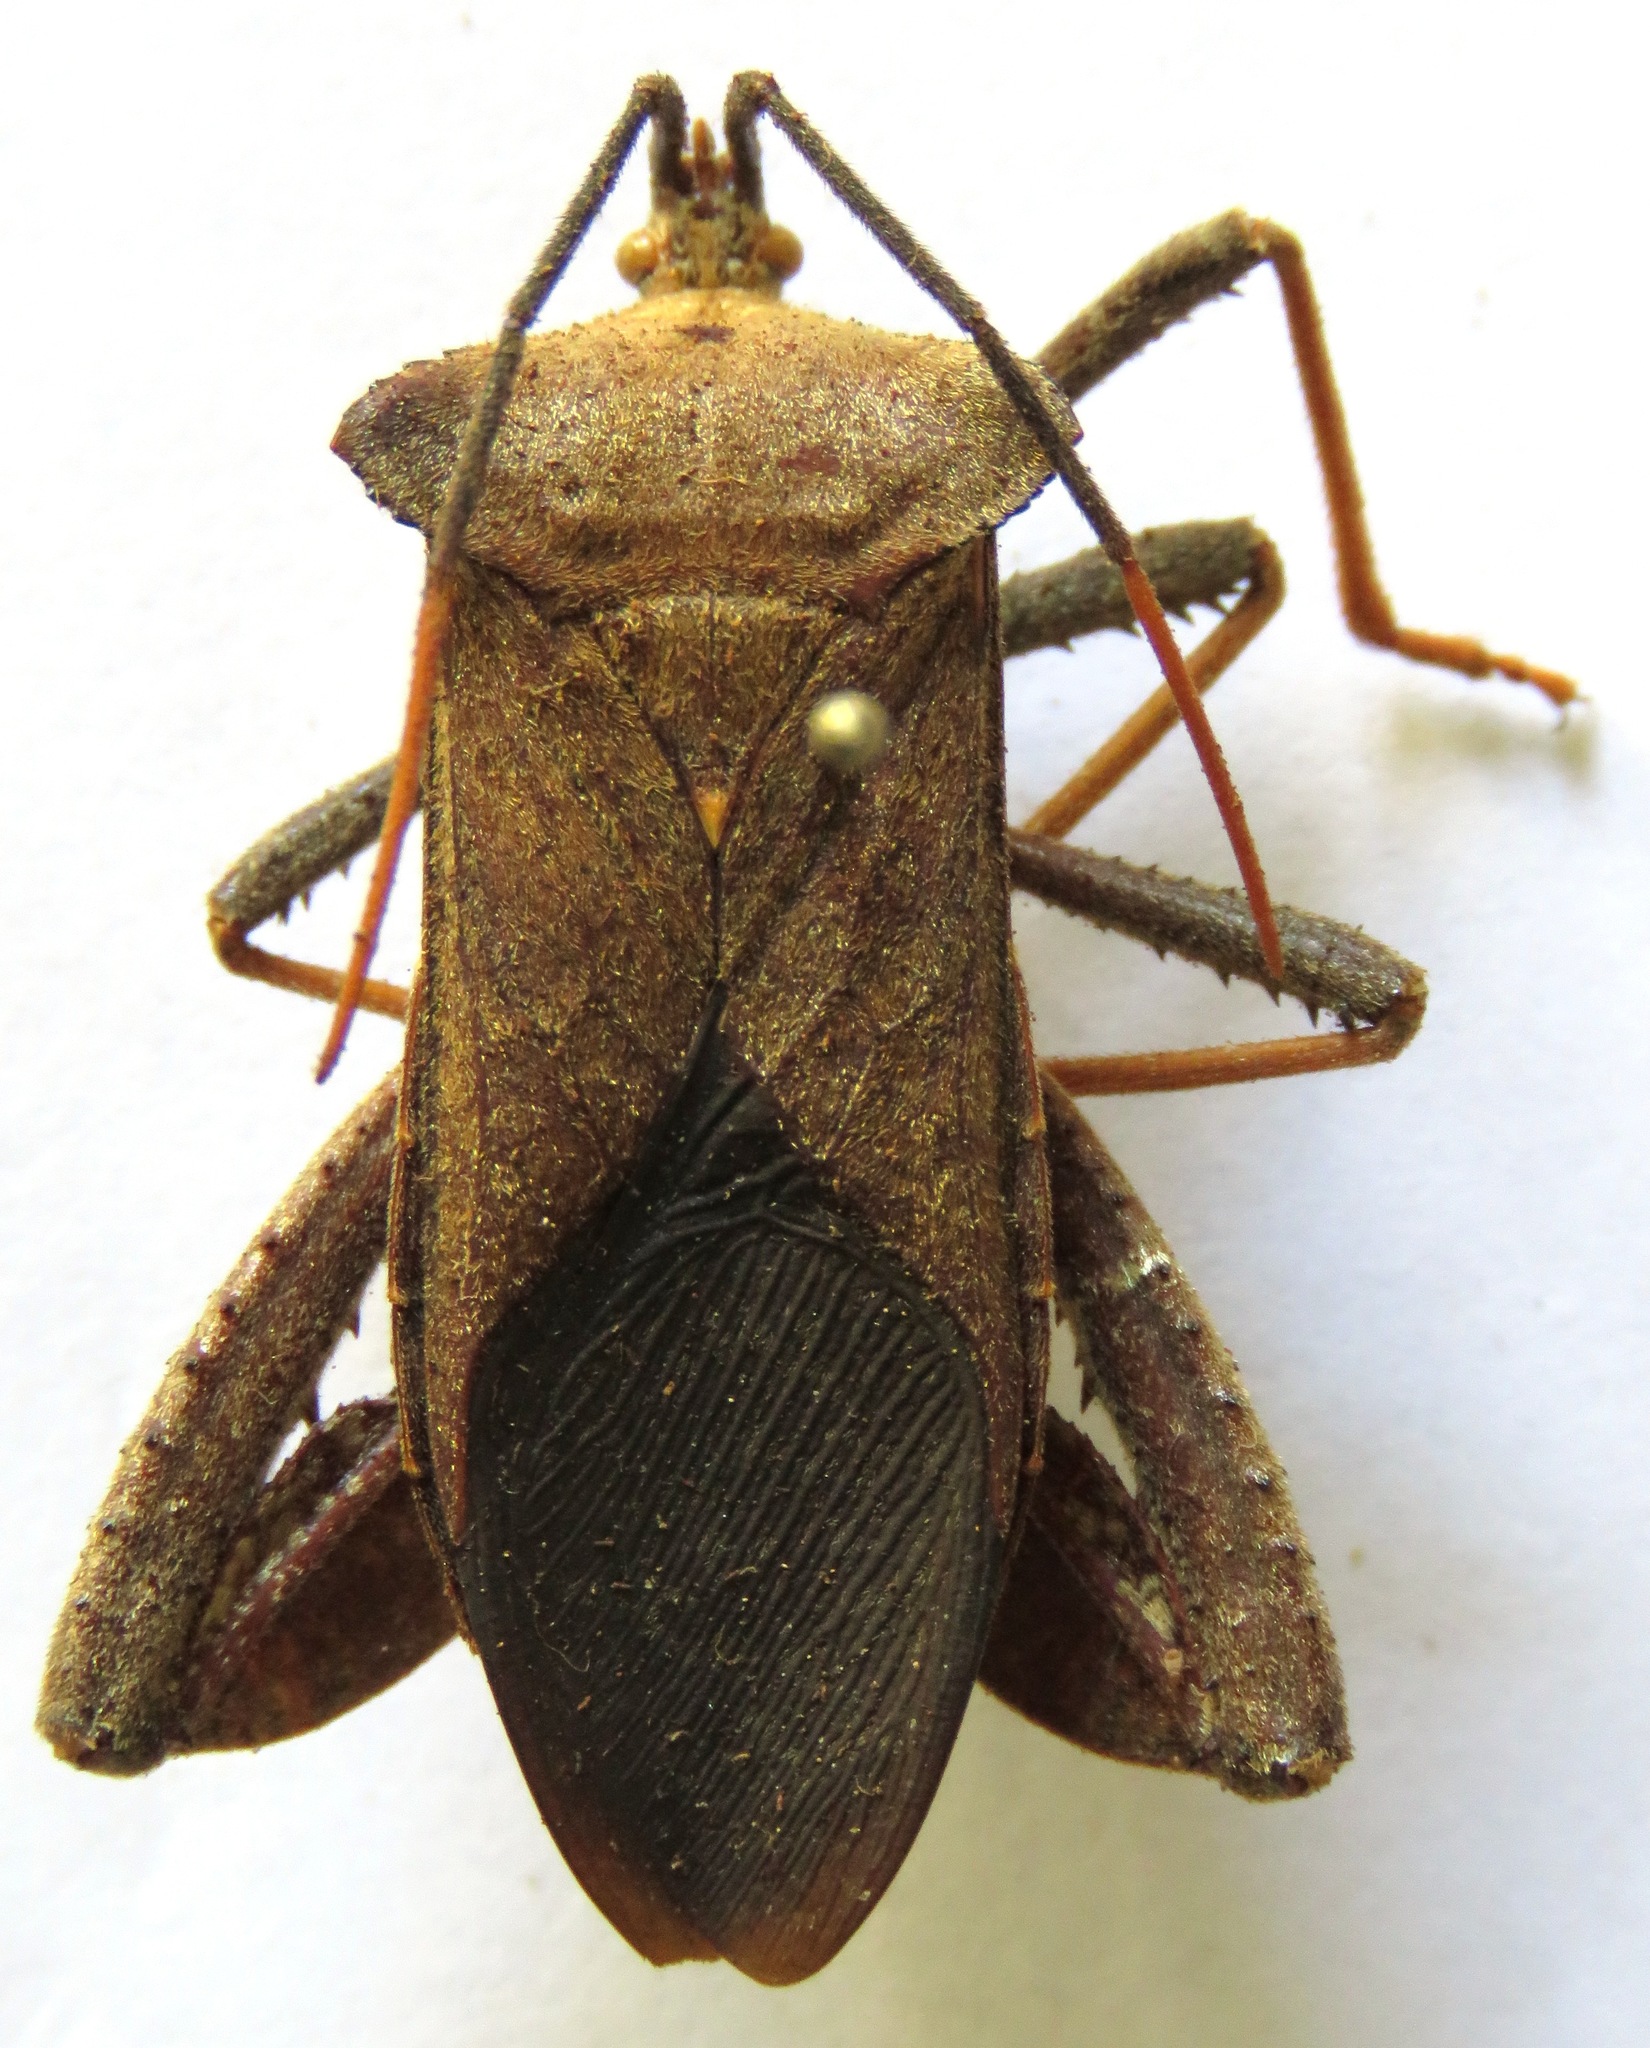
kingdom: Animalia
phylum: Arthropoda
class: Insecta
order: Hemiptera
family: Coreidae
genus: Acanthocephala
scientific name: Acanthocephala alata
